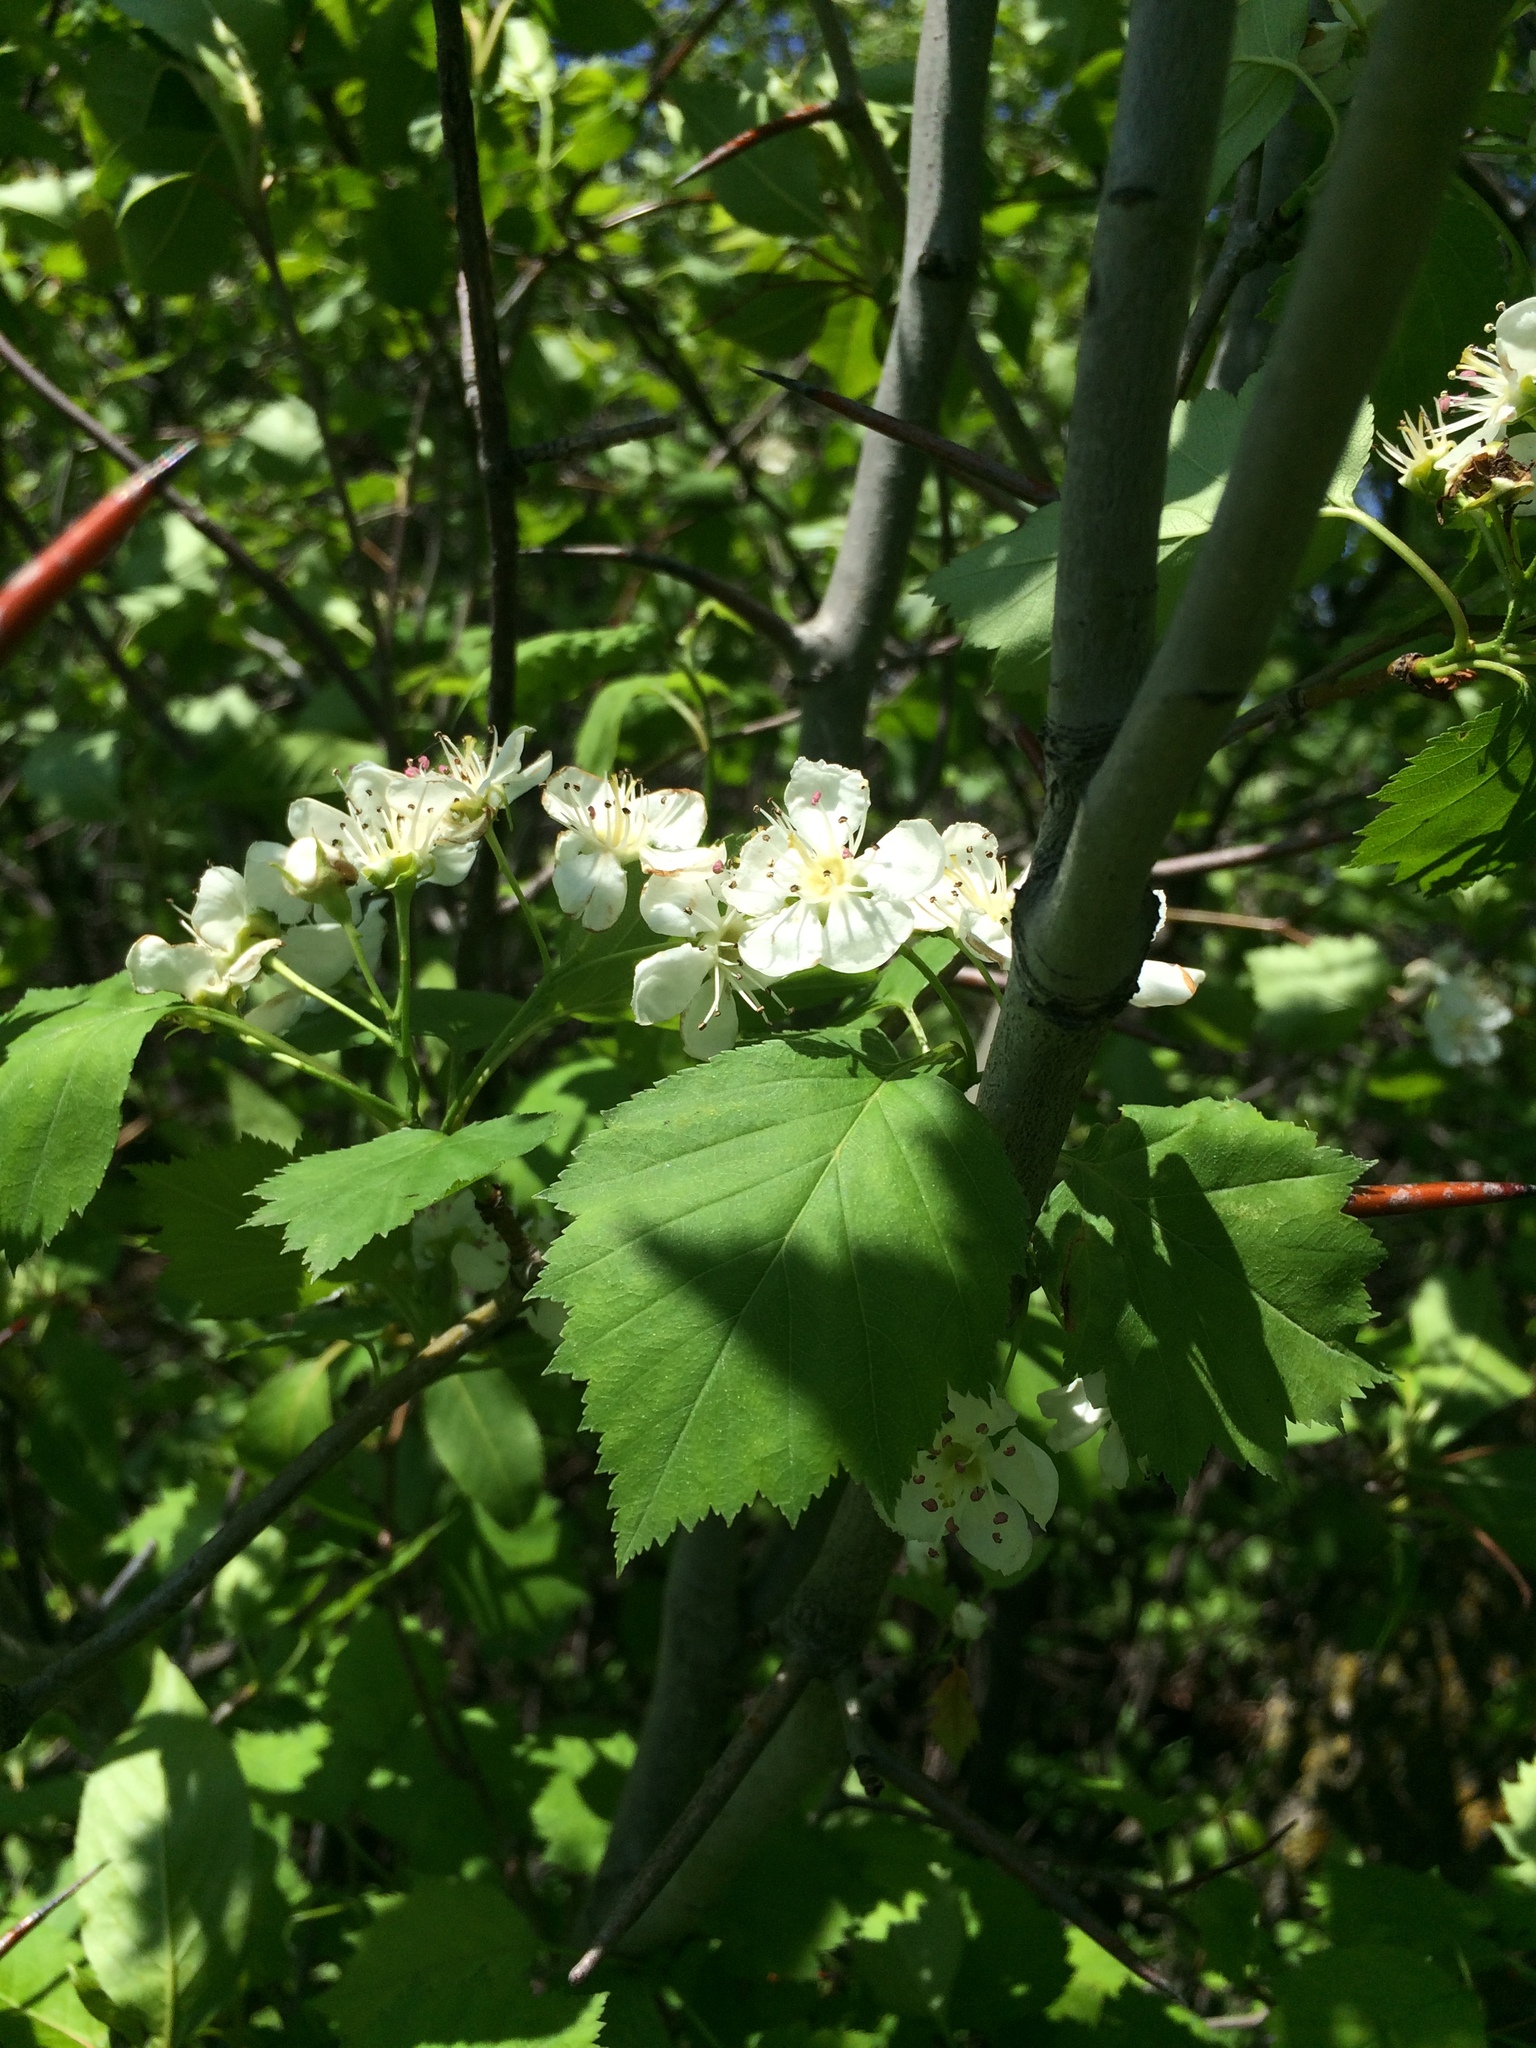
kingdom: Plantae
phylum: Tracheophyta
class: Magnoliopsida
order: Rosales
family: Rosaceae
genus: Crataegus
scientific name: Crataegus schuettei
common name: Schuette's hawthorn
